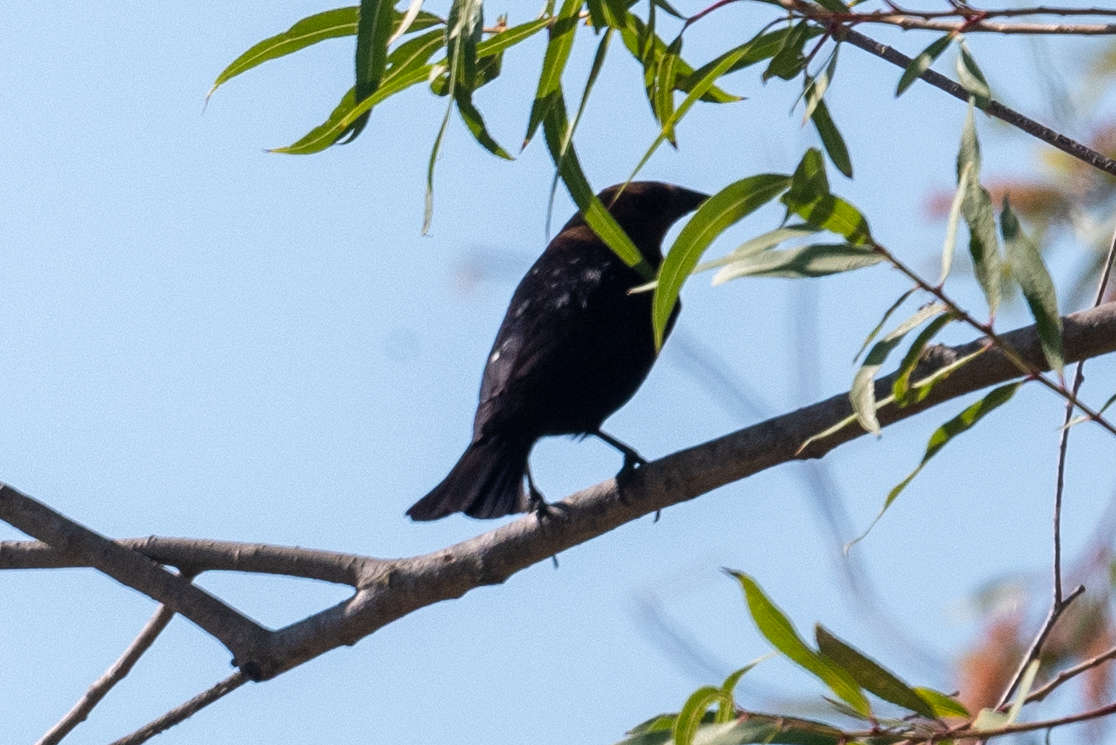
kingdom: Animalia
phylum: Chordata
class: Aves
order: Passeriformes
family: Icteridae
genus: Molothrus
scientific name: Molothrus ater
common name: Brown-headed cowbird
